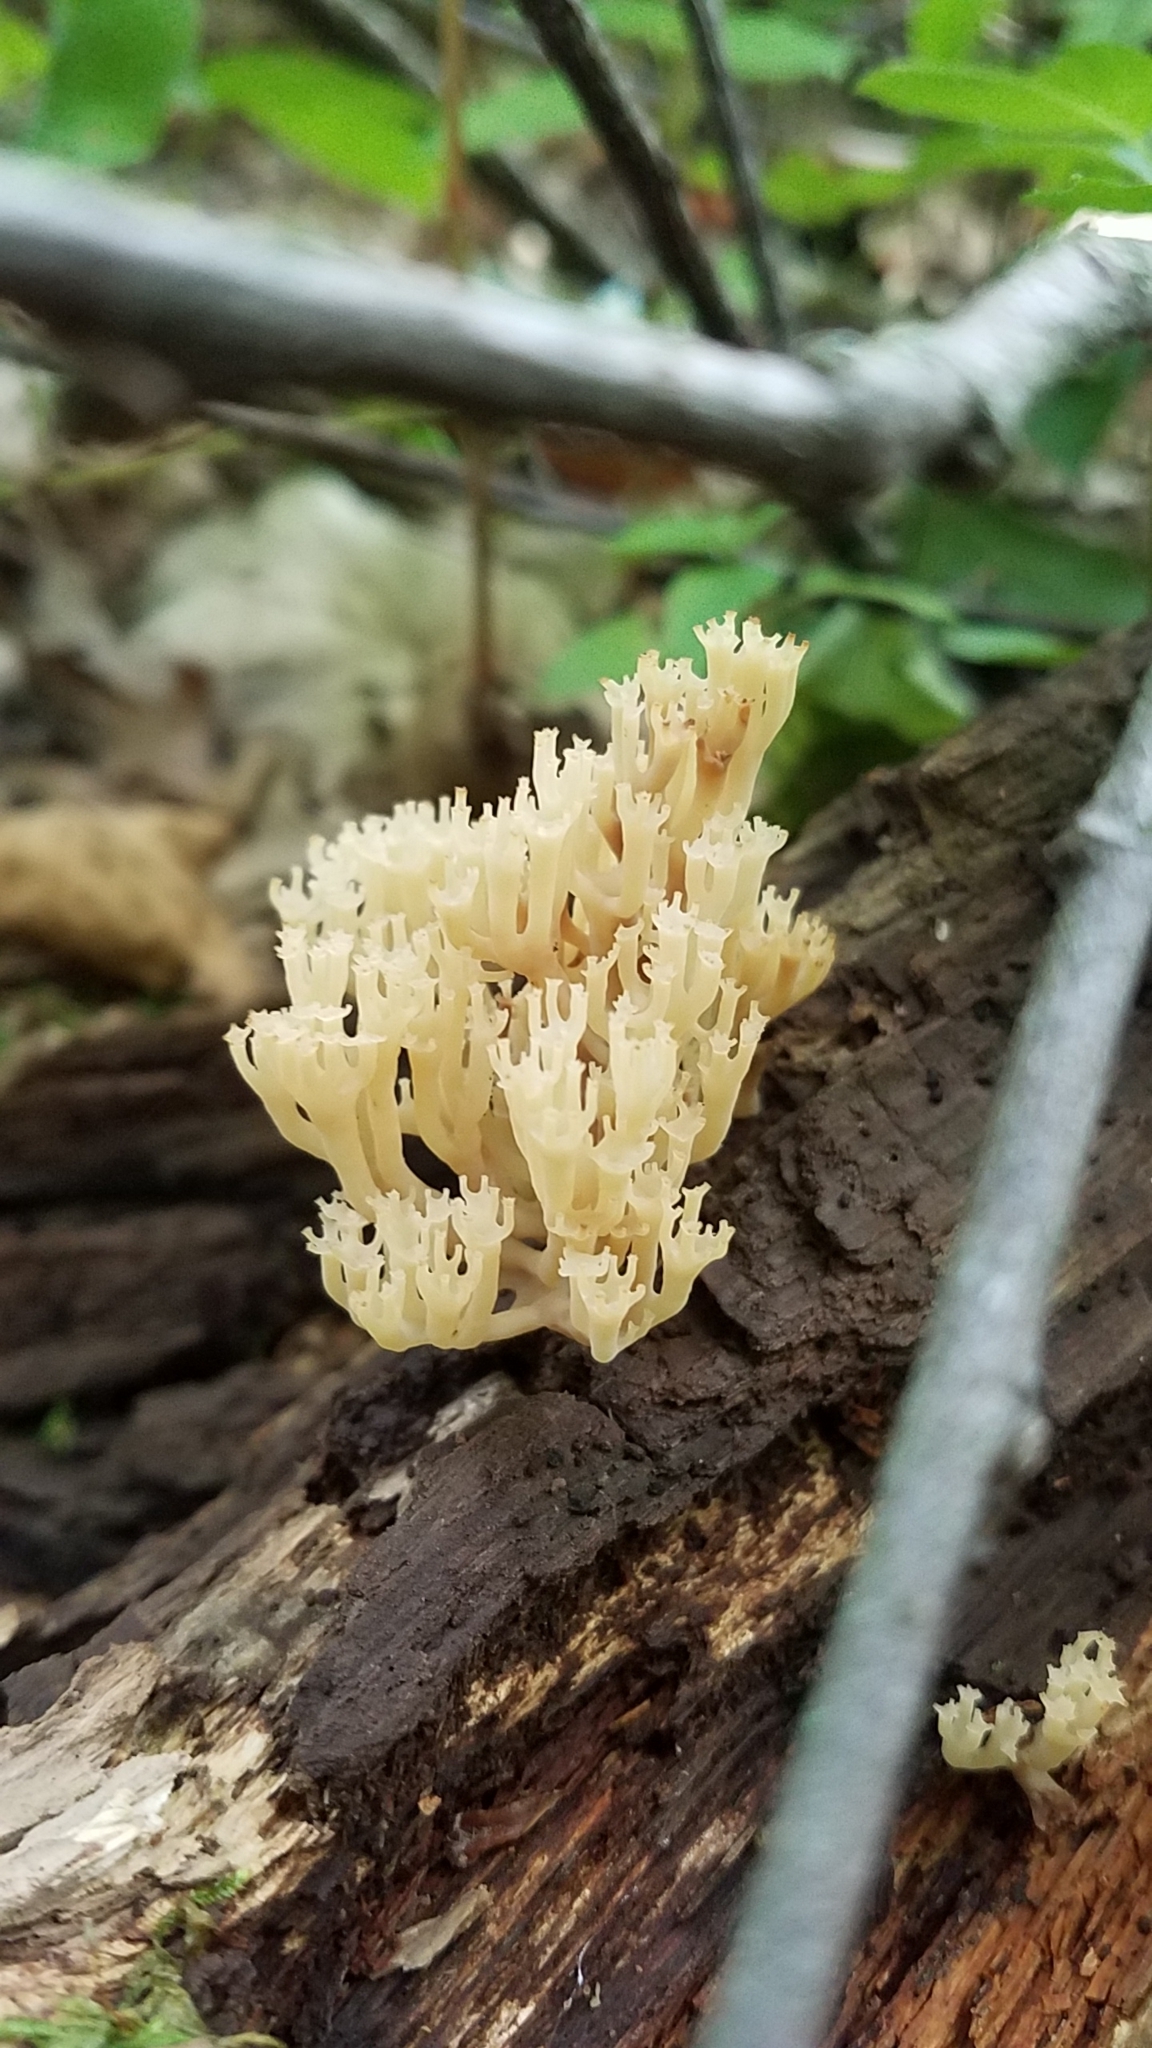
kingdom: Fungi
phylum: Basidiomycota
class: Agaricomycetes
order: Russulales
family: Auriscalpiaceae
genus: Artomyces
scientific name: Artomyces pyxidatus
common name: Crown-tipped coral fungus
